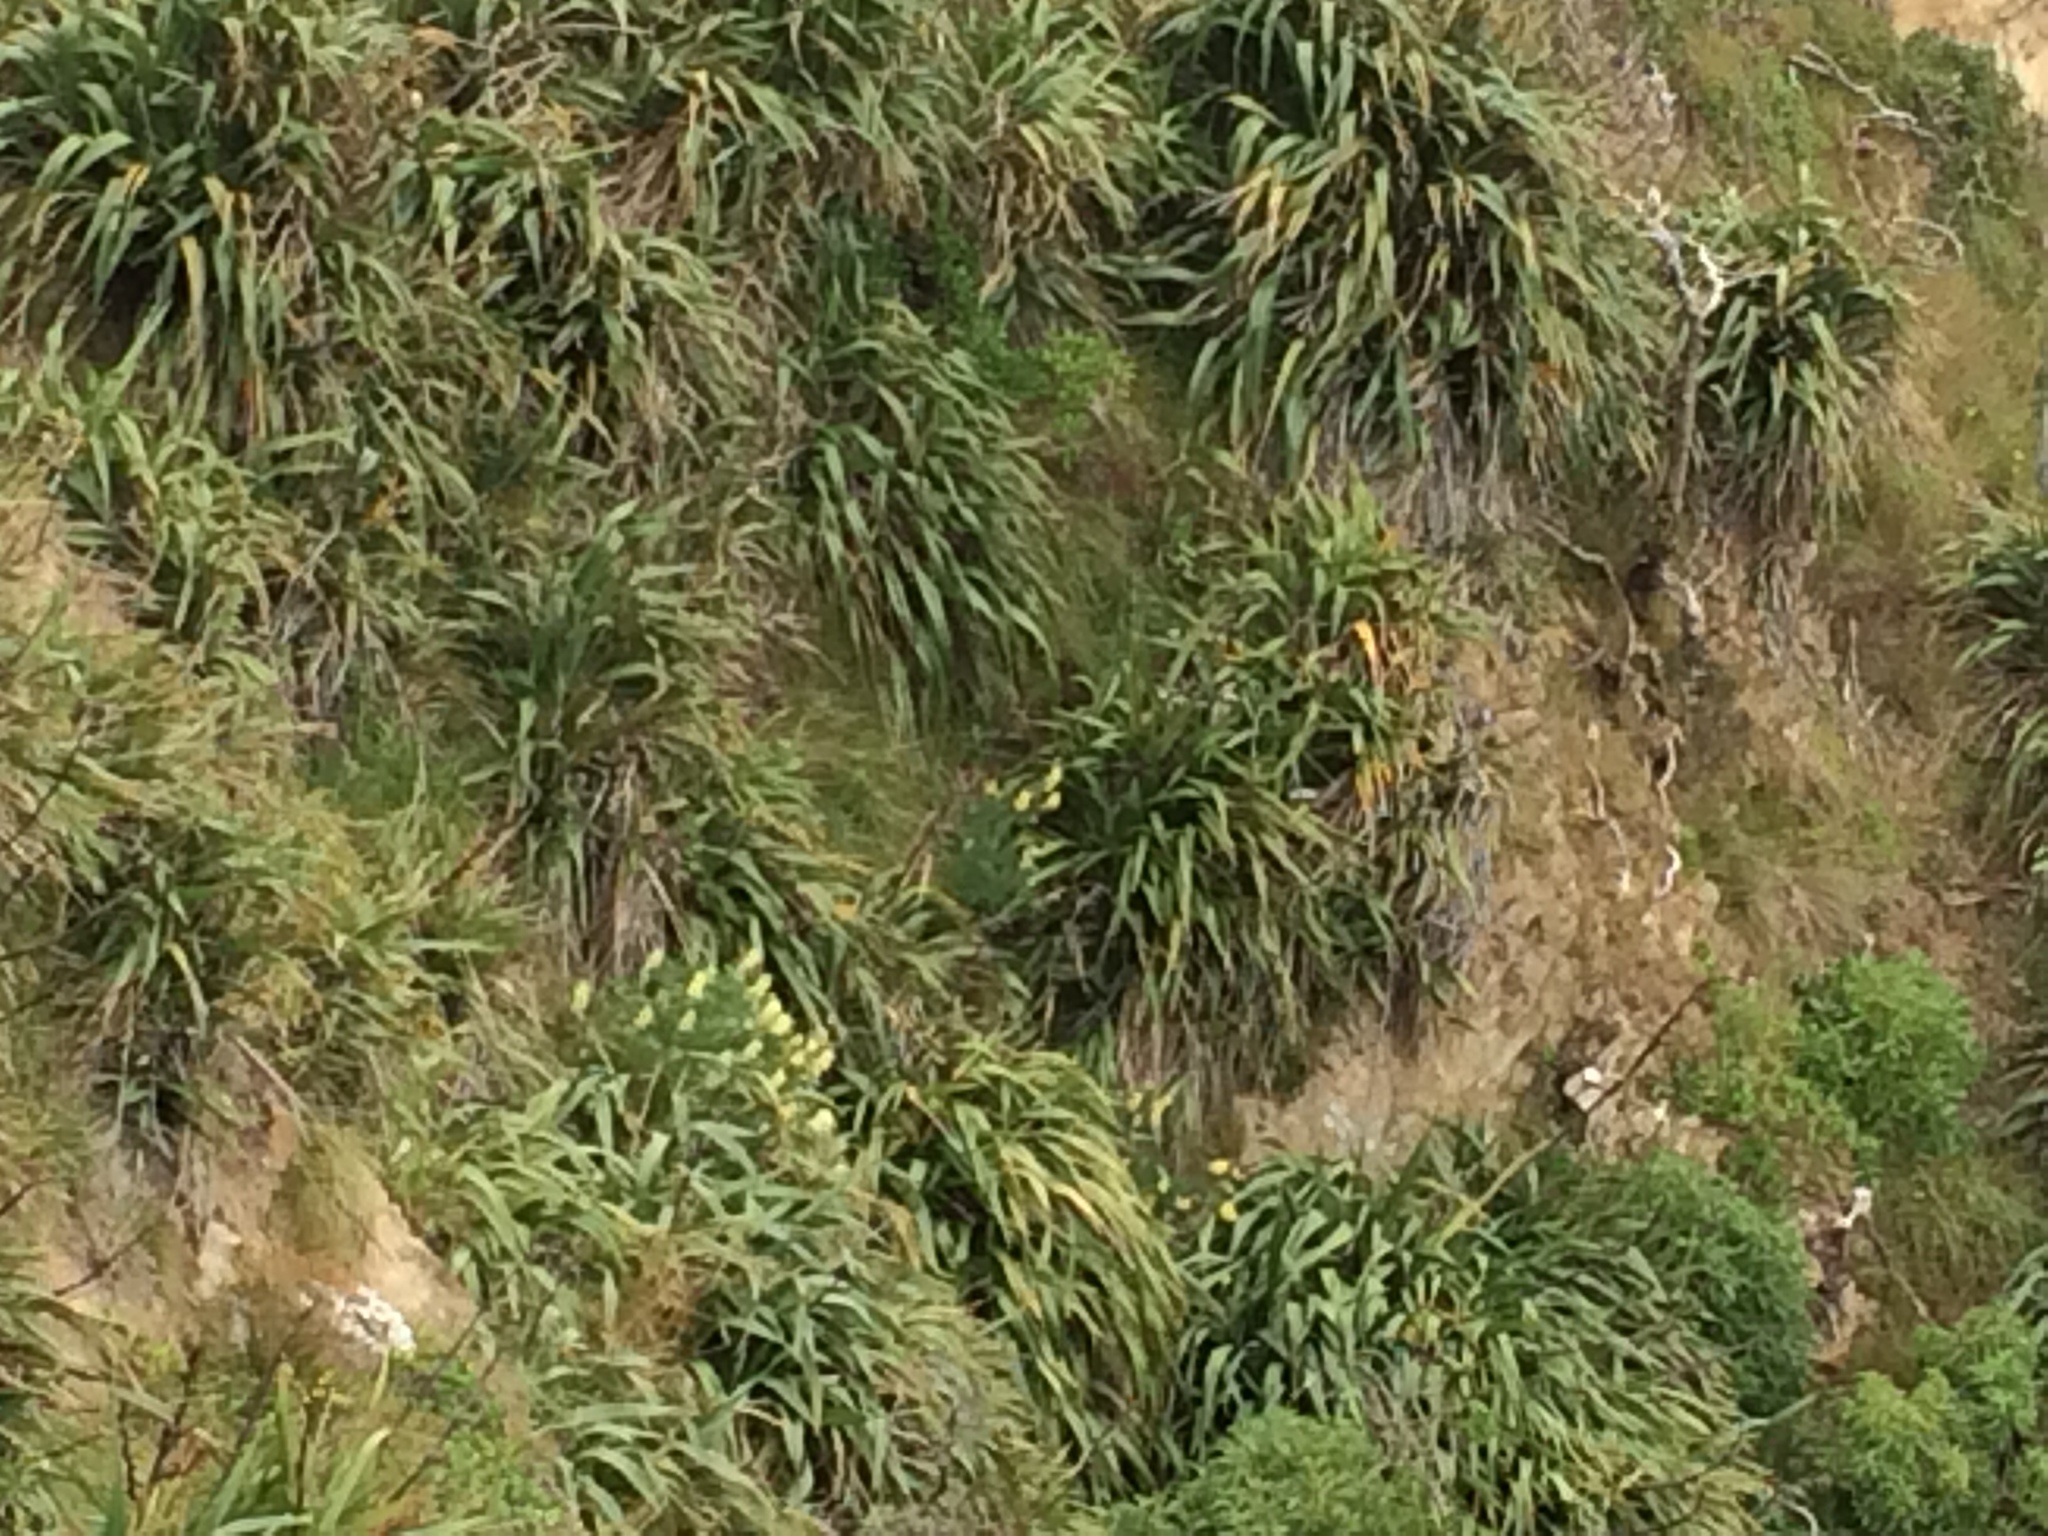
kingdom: Plantae
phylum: Tracheophyta
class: Magnoliopsida
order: Fabales
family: Fabaceae
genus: Lupinus
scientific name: Lupinus arboreus
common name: Yellow bush lupine
